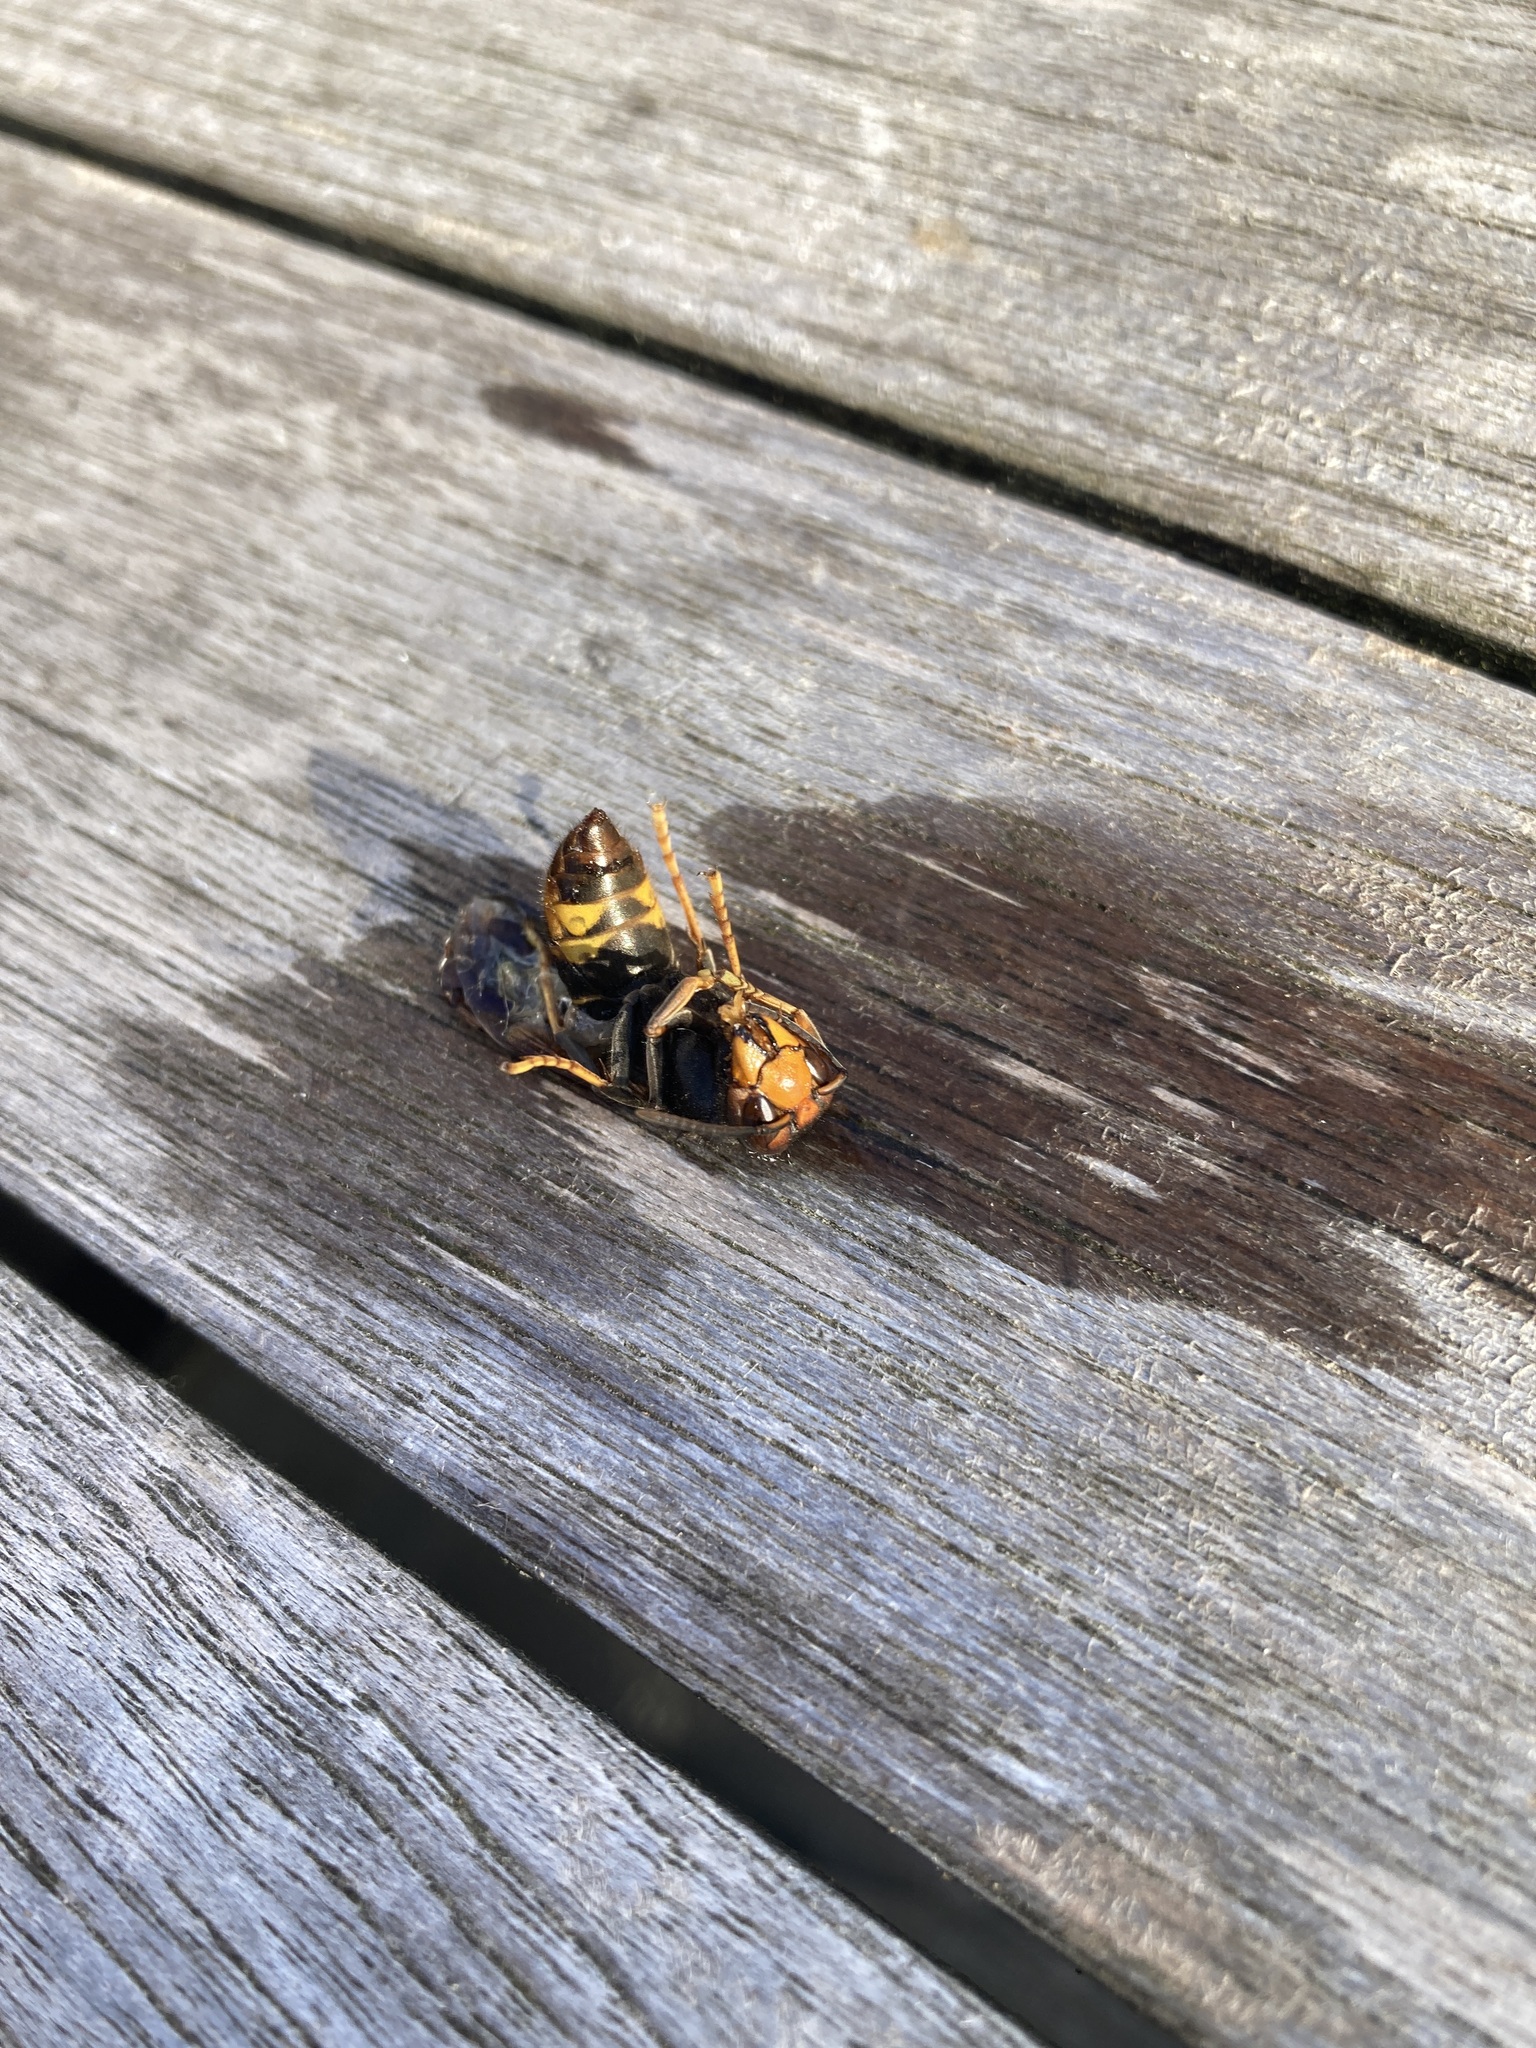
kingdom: Animalia
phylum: Arthropoda
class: Insecta
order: Hymenoptera
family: Vespidae
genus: Vespa
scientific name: Vespa velutina
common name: Asian hornet
